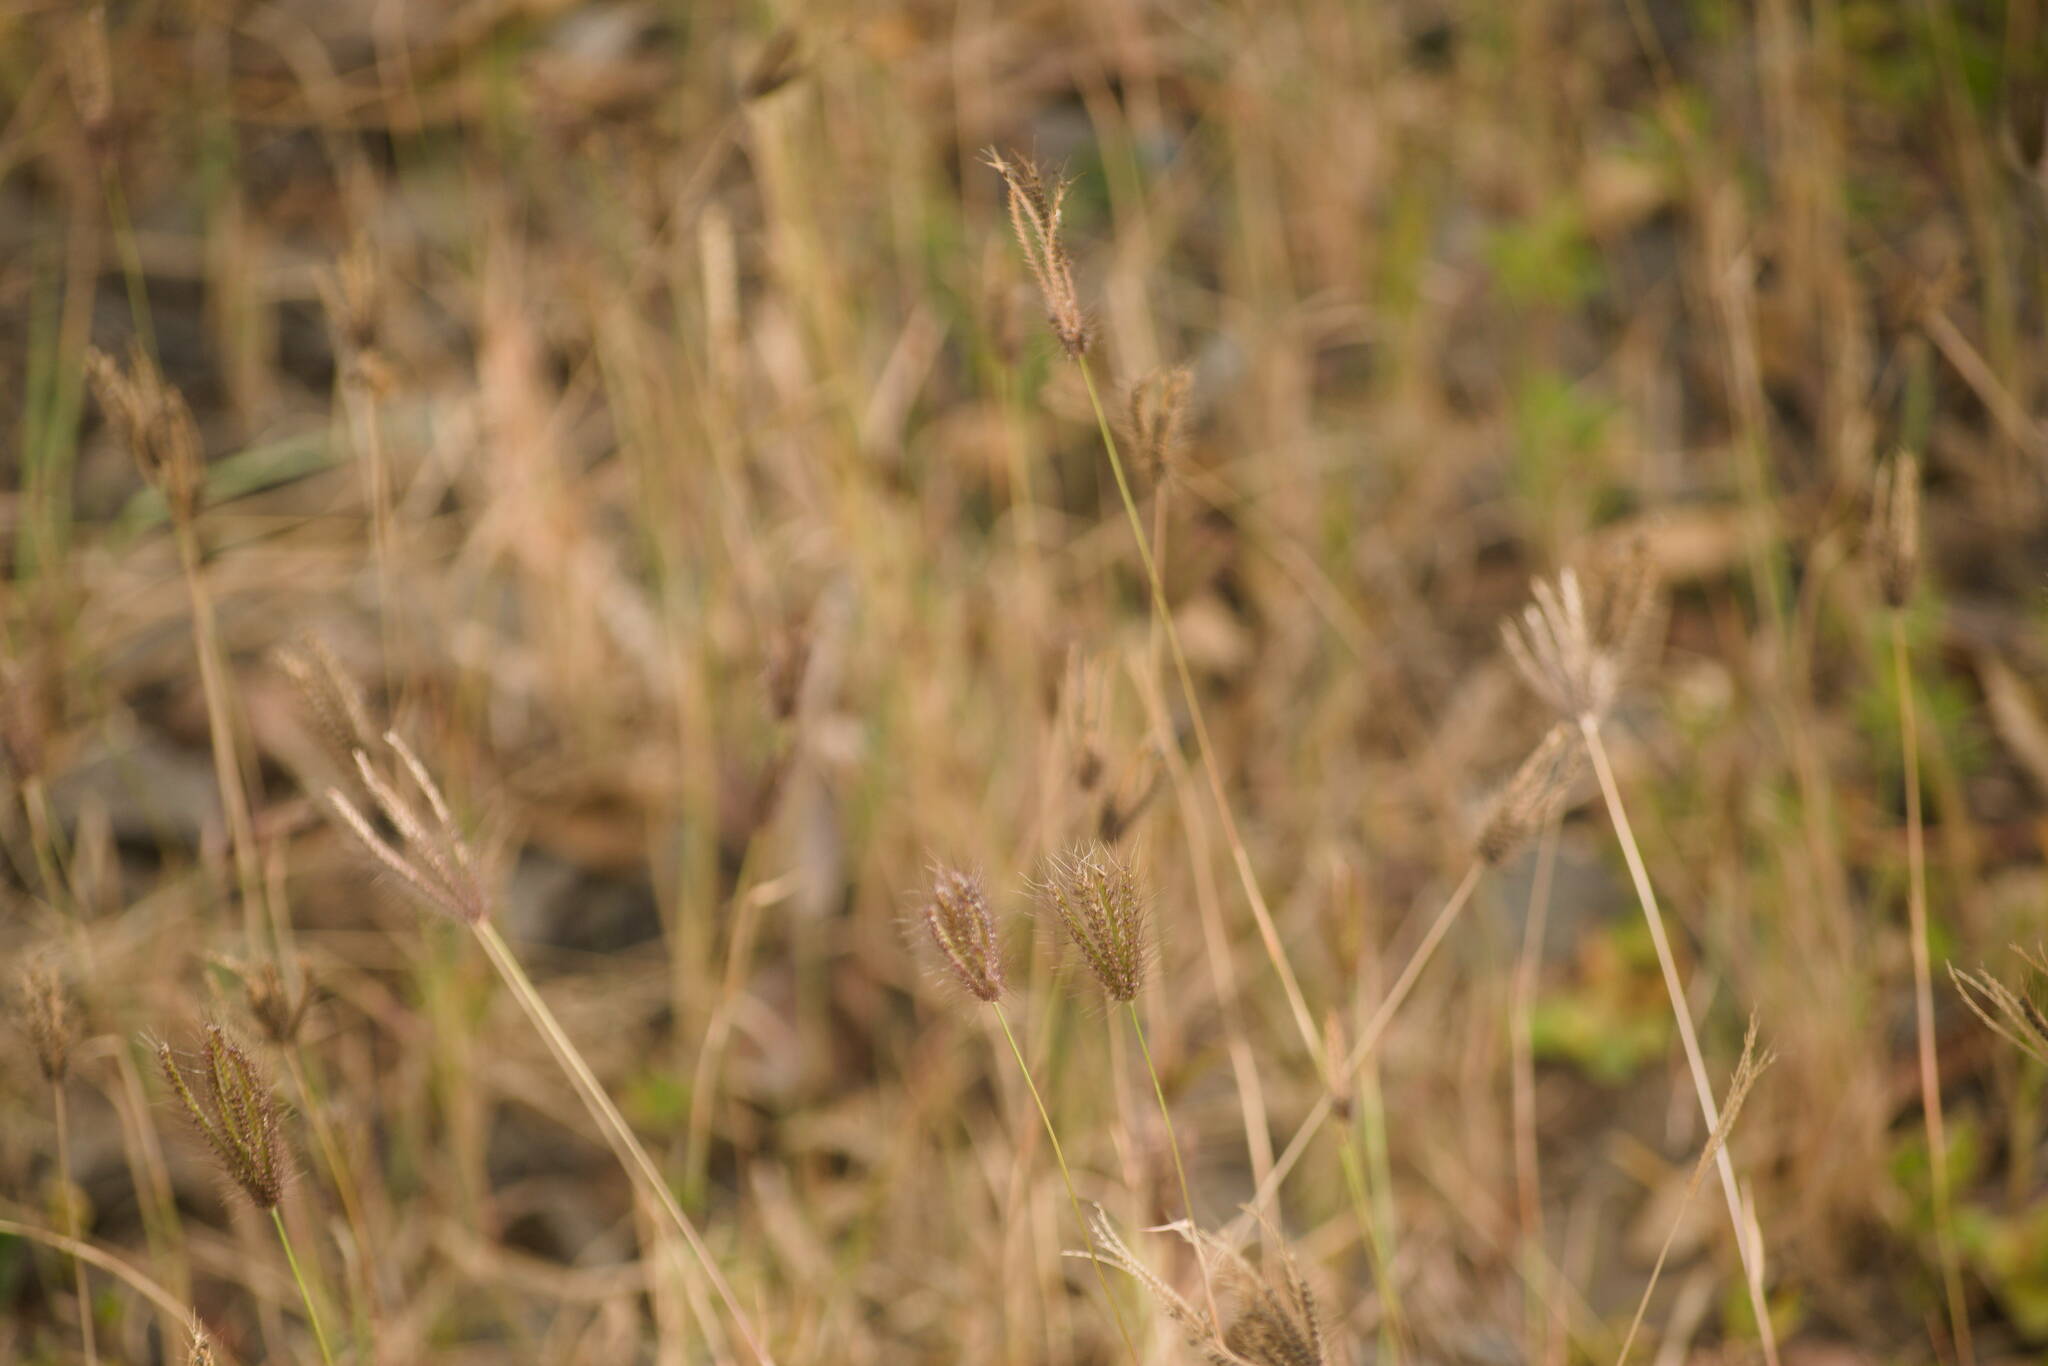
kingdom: Plantae
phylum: Tracheophyta
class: Liliopsida
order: Poales
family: Poaceae
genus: Chloris
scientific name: Chloris barbata
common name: Swollen fingergrass
